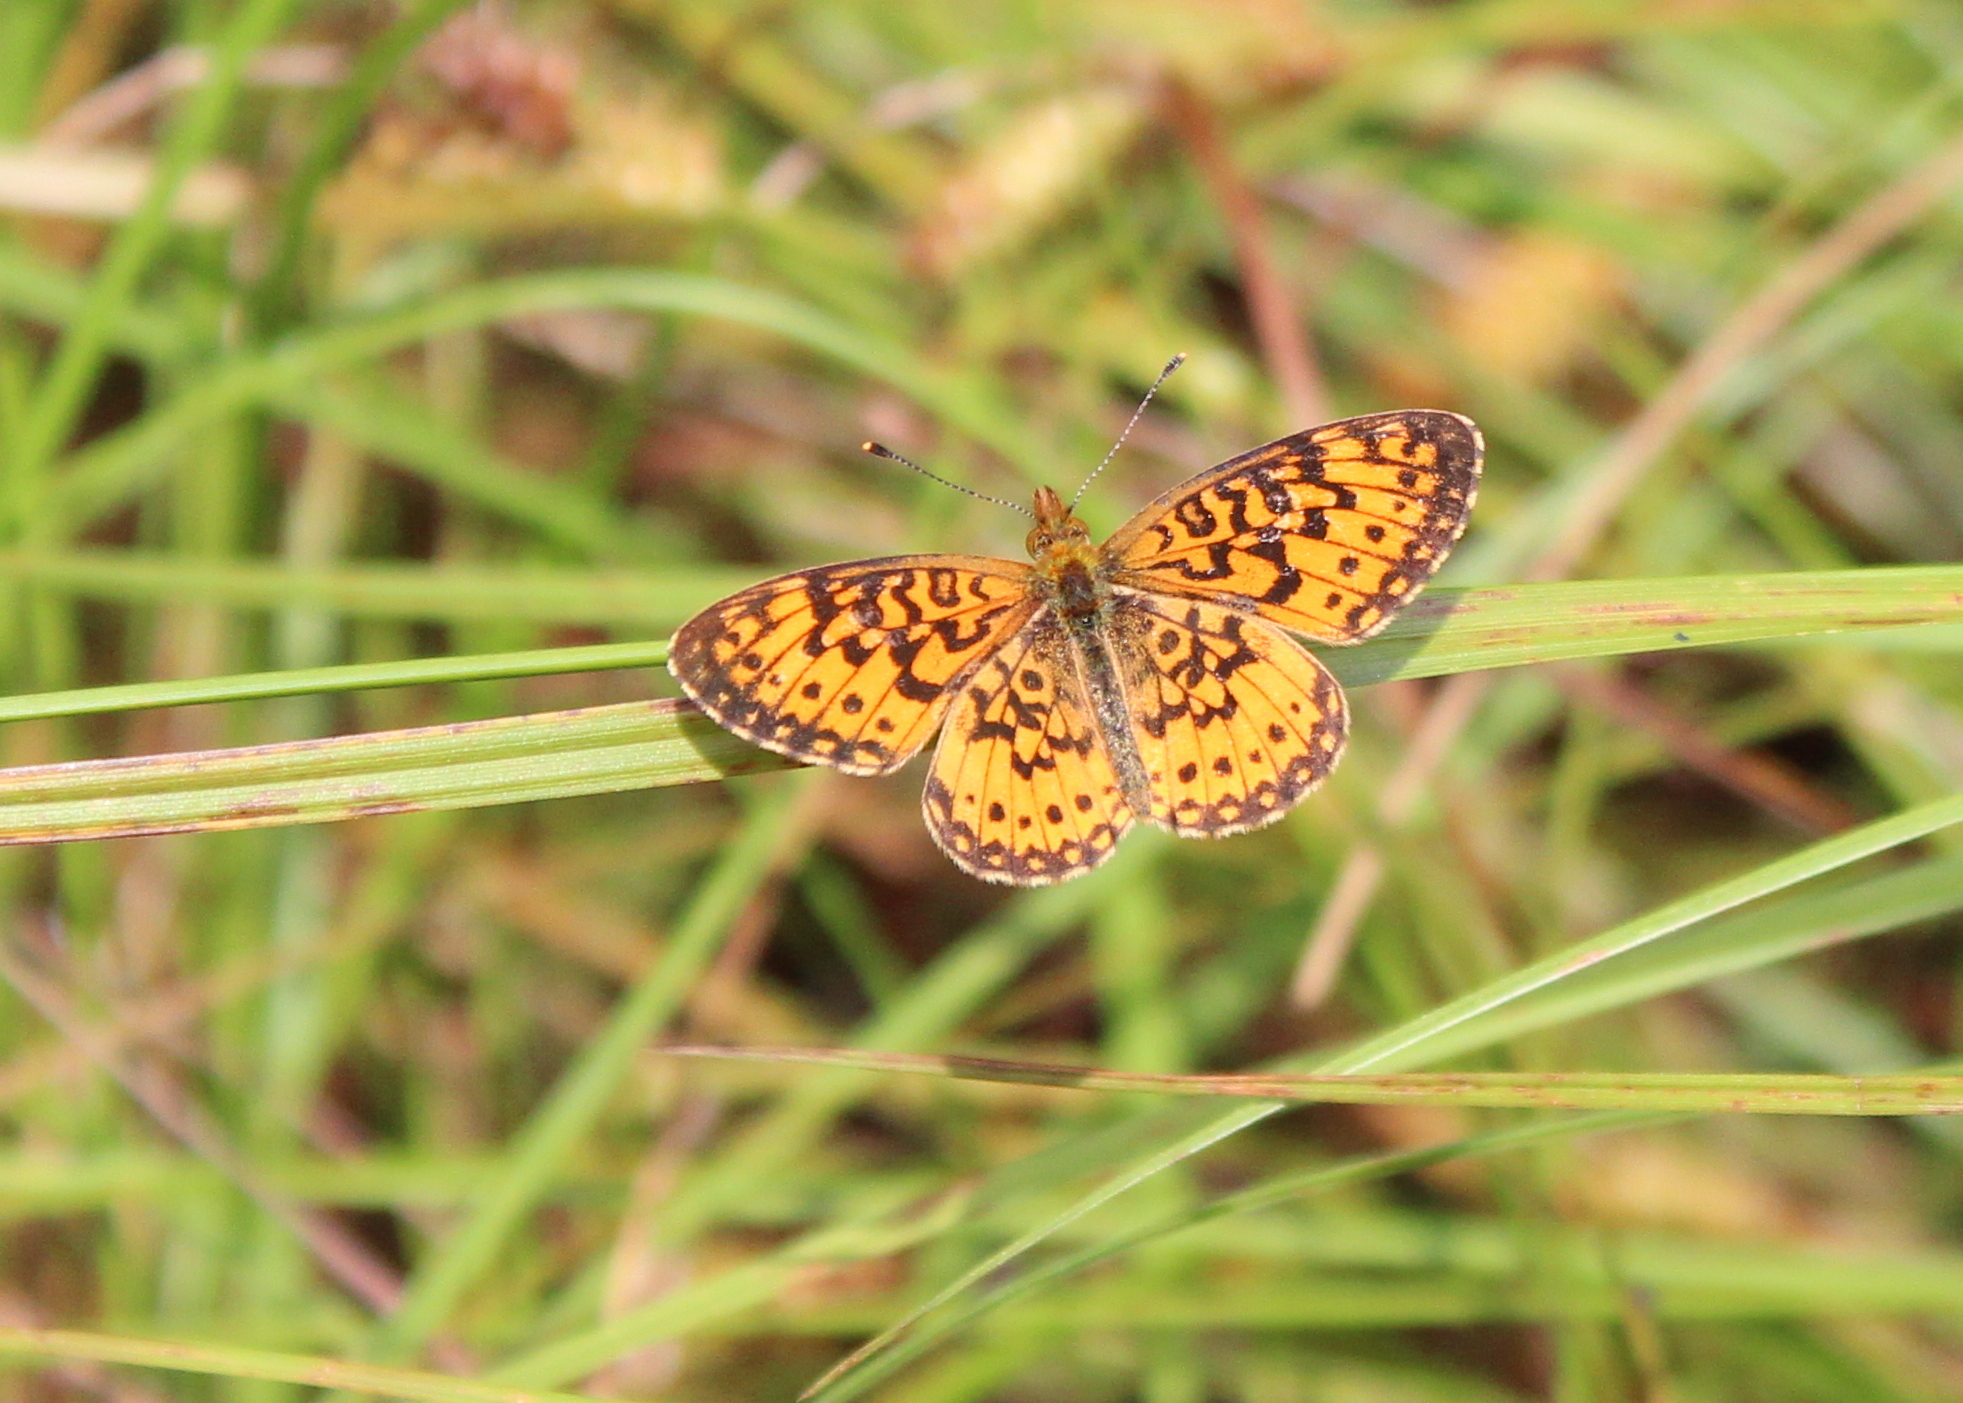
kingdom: Animalia
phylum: Arthropoda
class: Insecta
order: Lepidoptera
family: Nymphalidae
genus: Boloria
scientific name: Boloria
